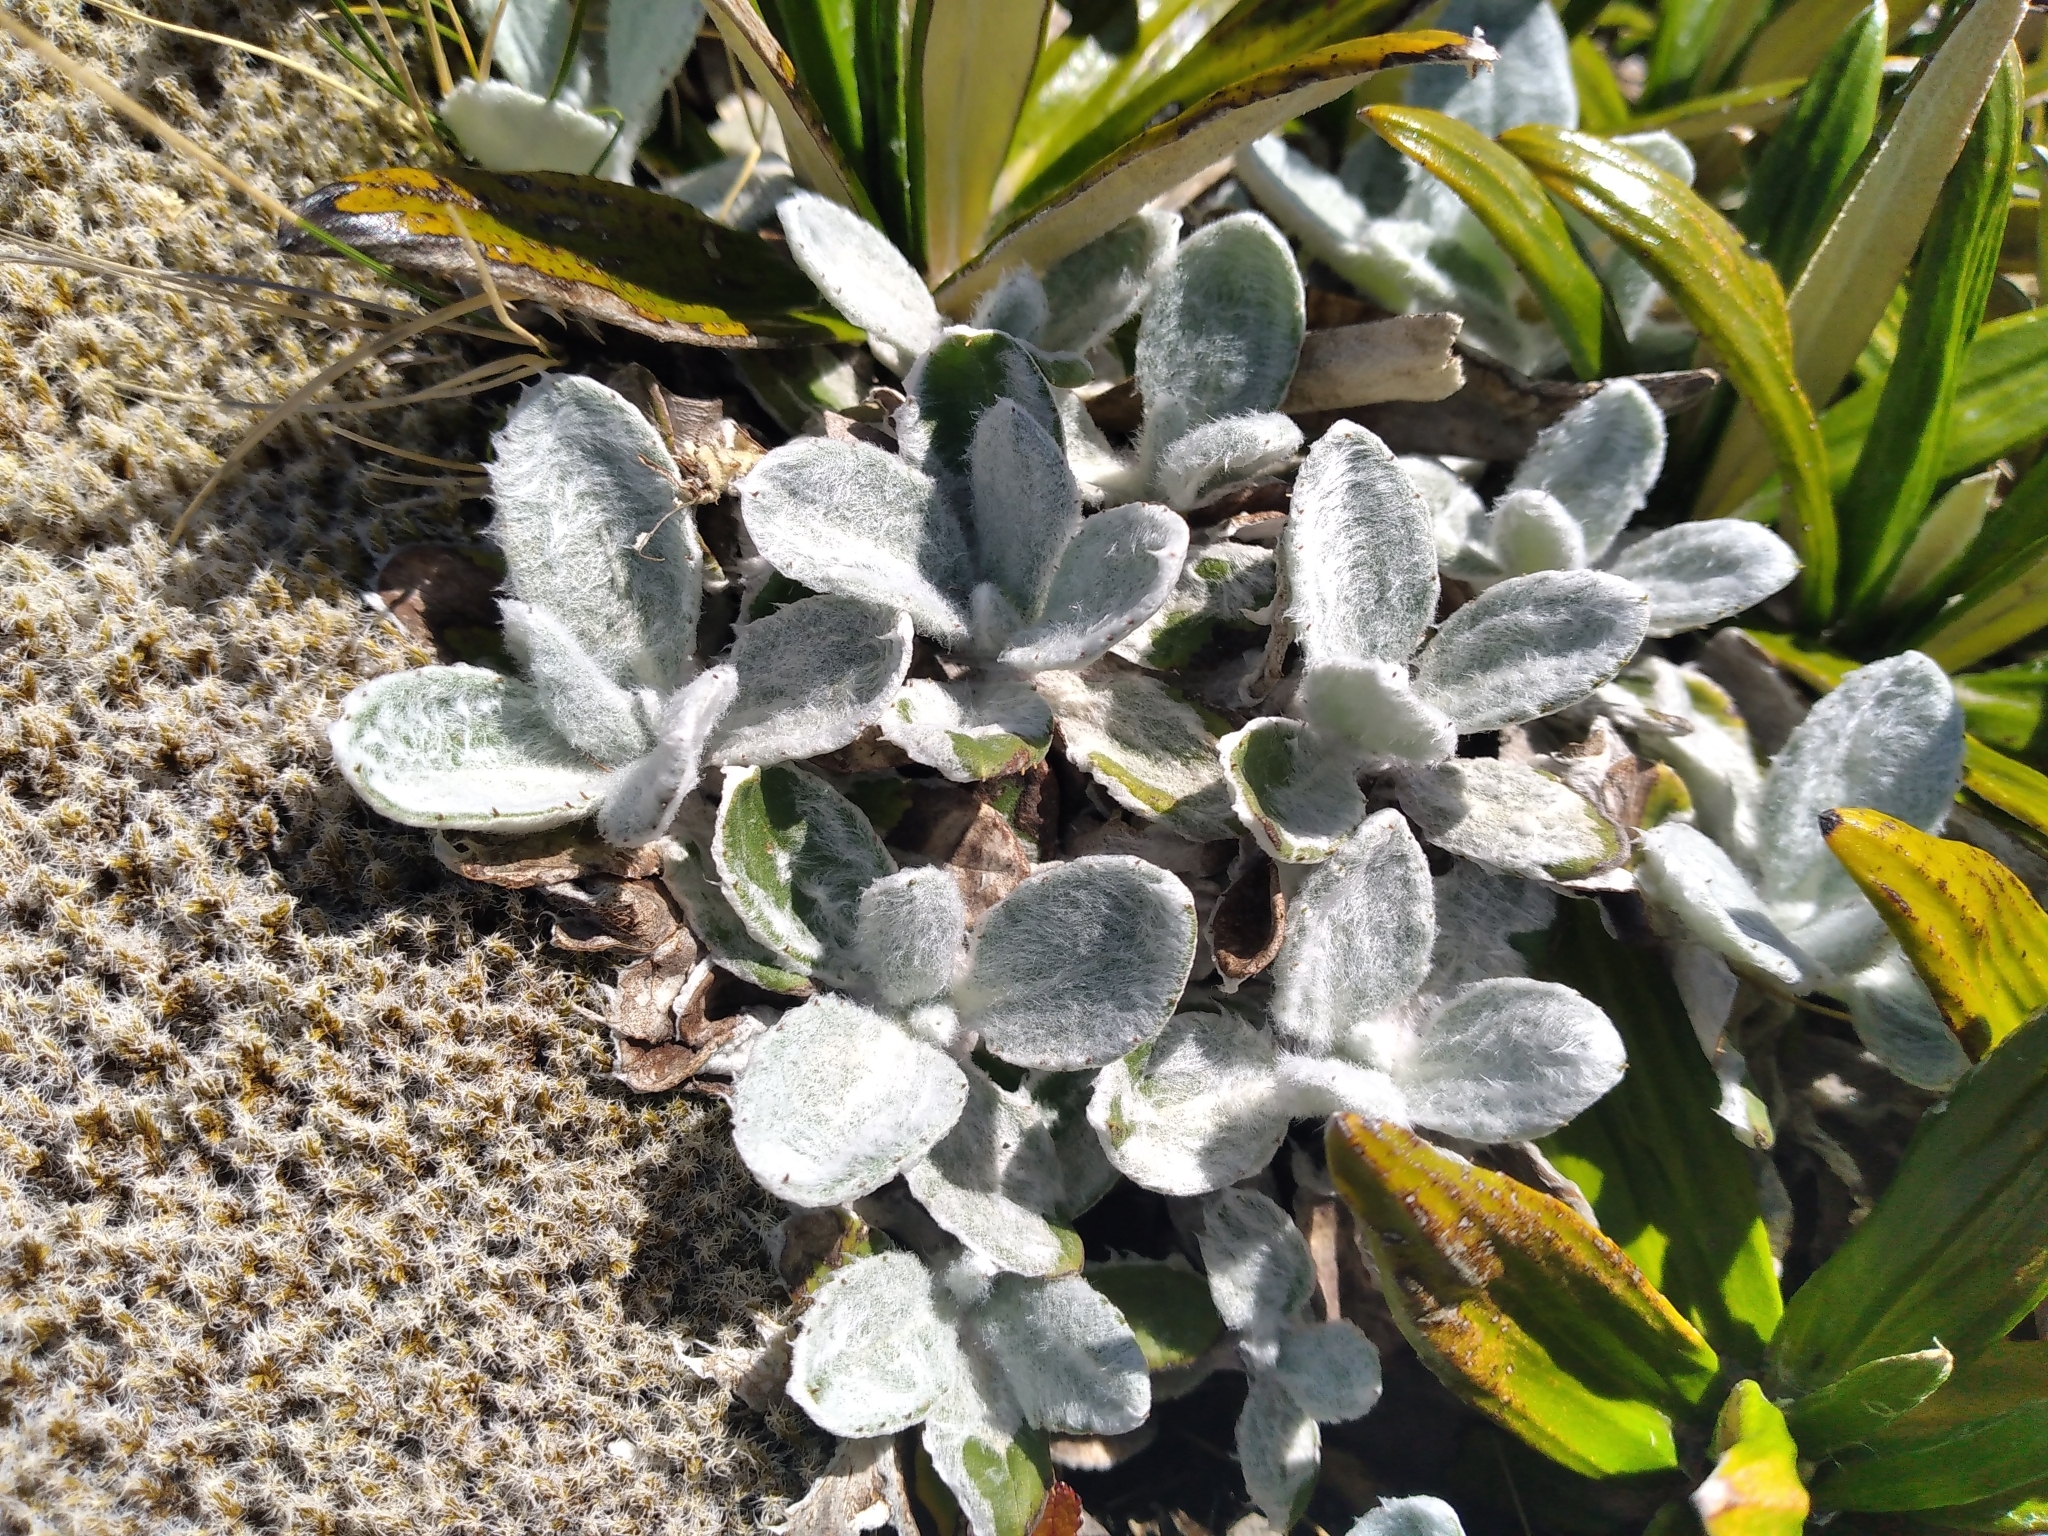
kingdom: Plantae
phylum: Tracheophyta
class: Magnoliopsida
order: Asterales
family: Asteraceae
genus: Celmisia
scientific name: Celmisia allanii
